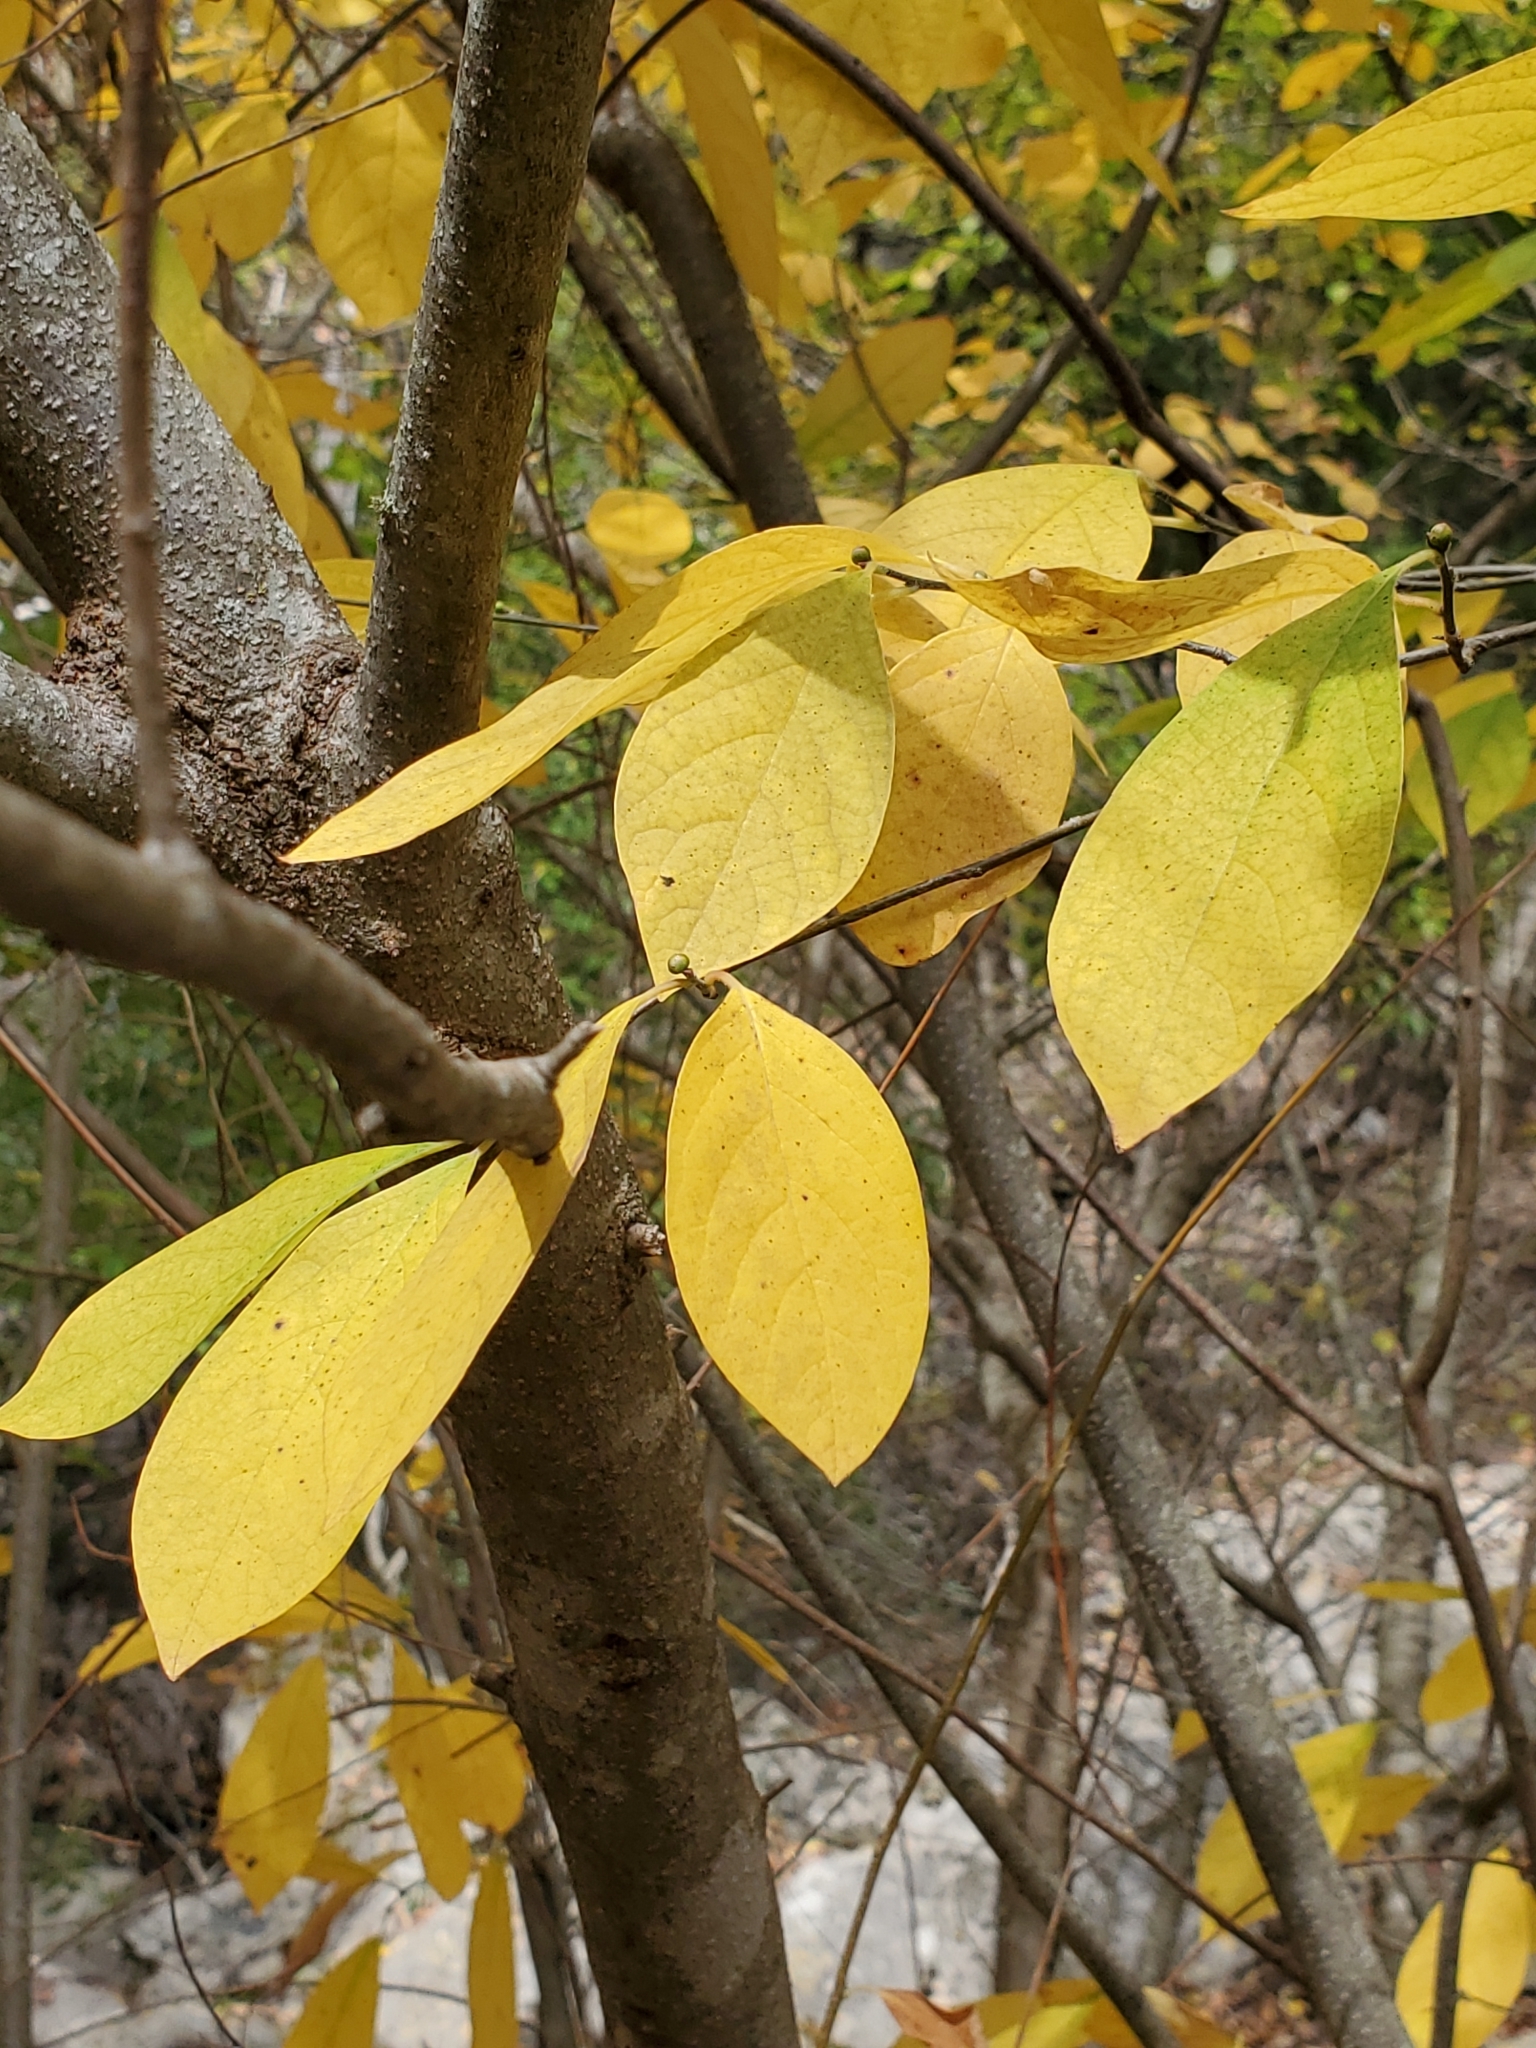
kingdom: Plantae
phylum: Tracheophyta
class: Magnoliopsida
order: Laurales
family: Lauraceae
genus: Lindera
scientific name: Lindera benzoin
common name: Spicebush
